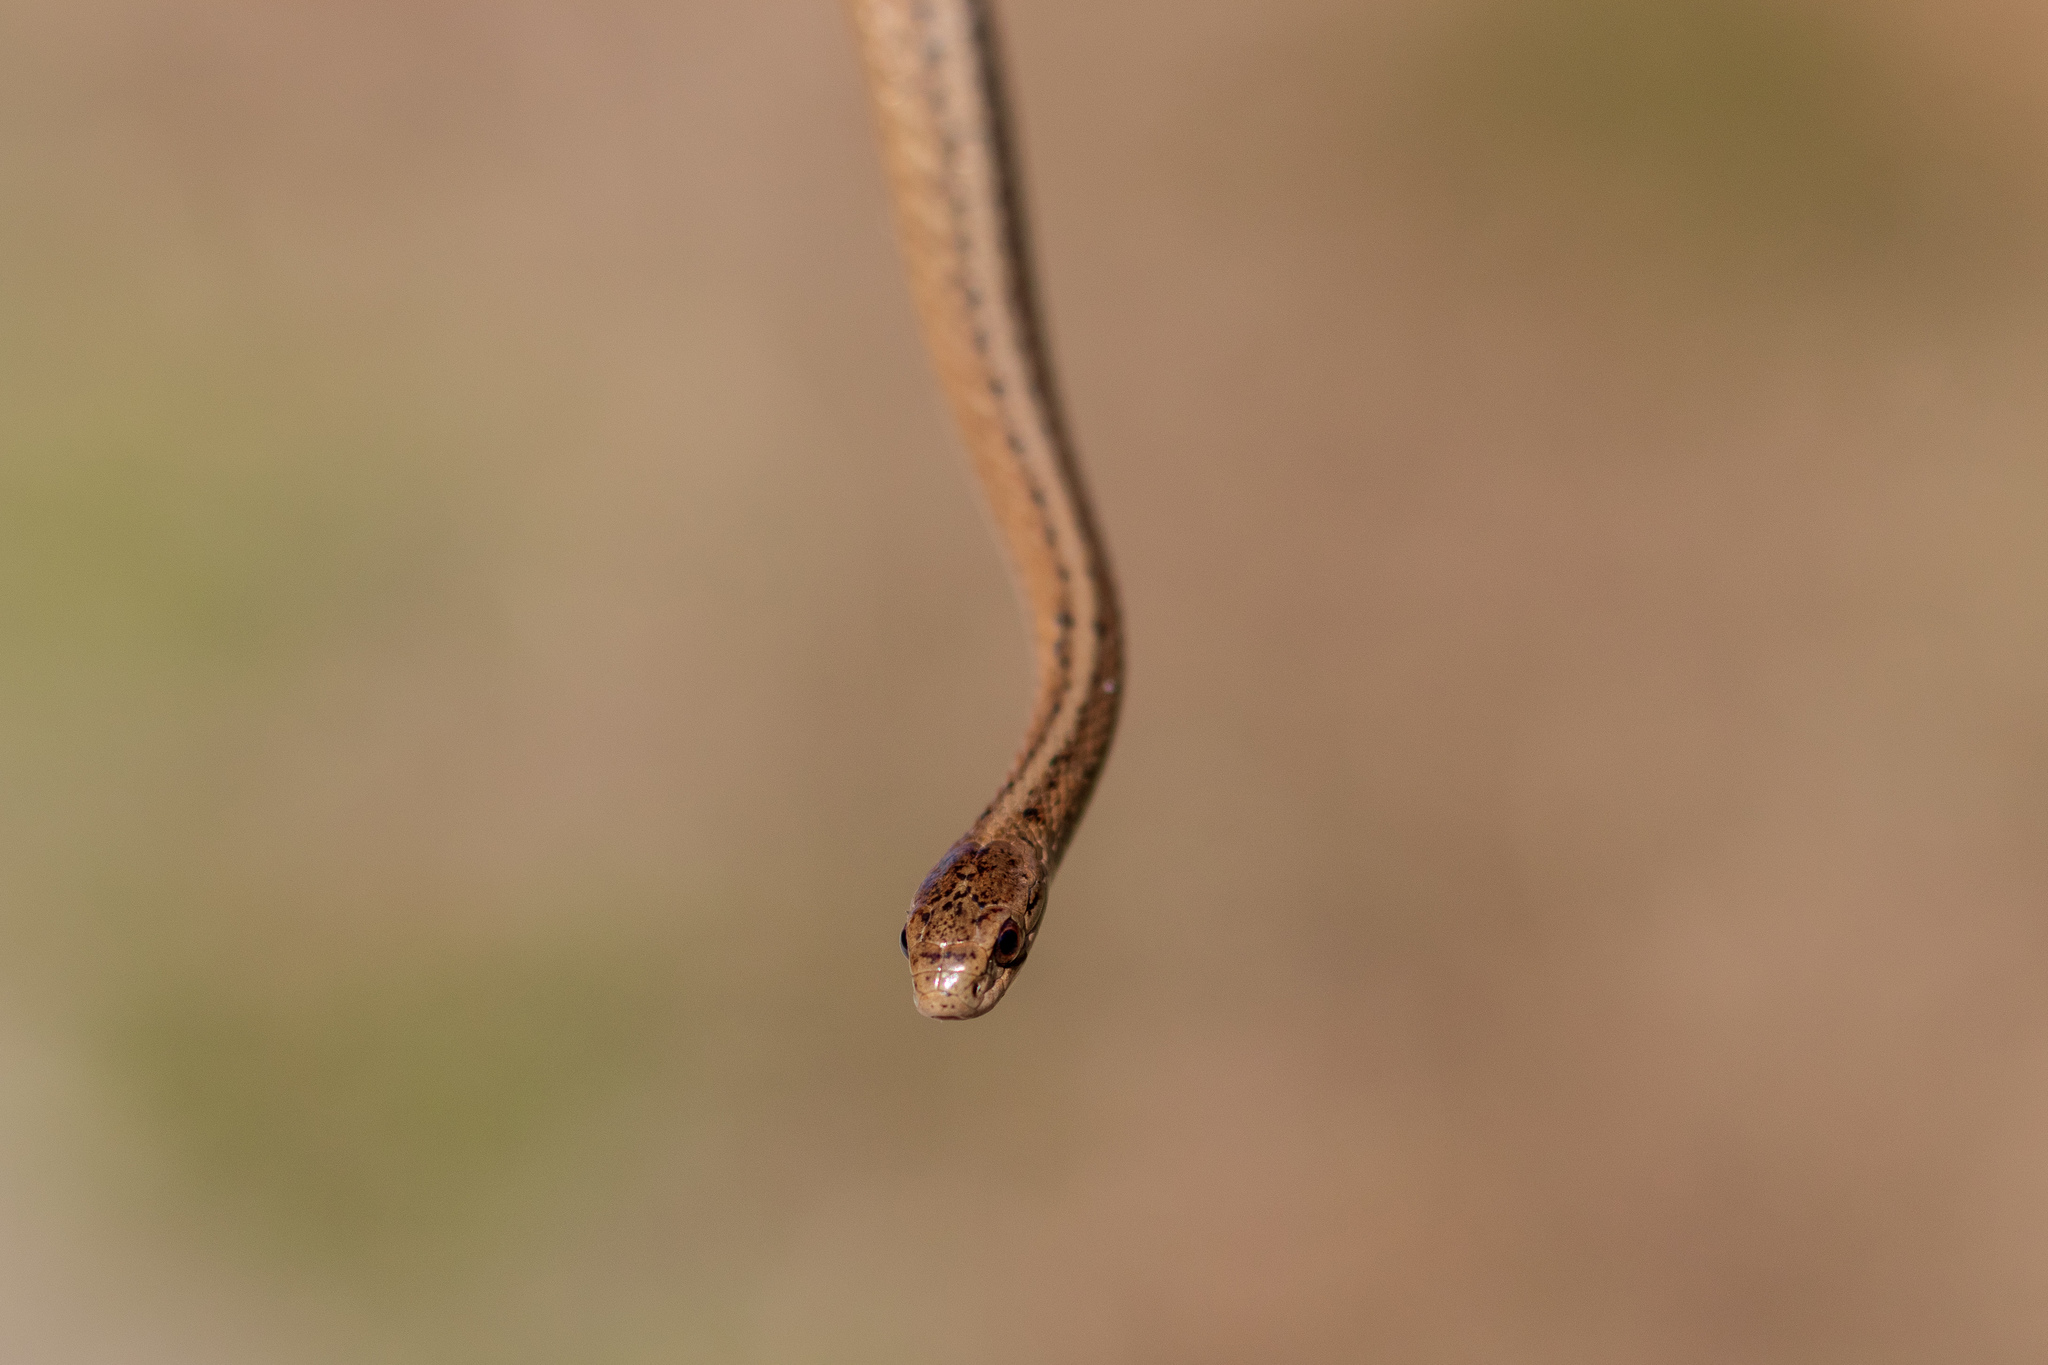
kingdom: Animalia
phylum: Chordata
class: Squamata
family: Colubridae
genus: Storeria
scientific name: Storeria dekayi
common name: (dekay’s) brown snake
